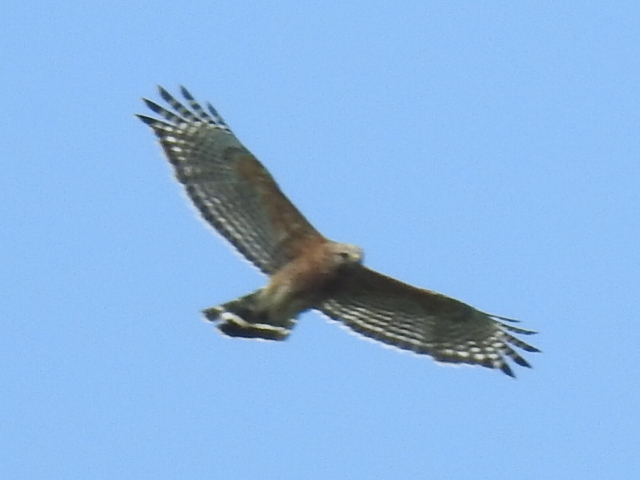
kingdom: Animalia
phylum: Chordata
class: Aves
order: Accipitriformes
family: Accipitridae
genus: Buteo
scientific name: Buteo lineatus
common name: Red-shouldered hawk
